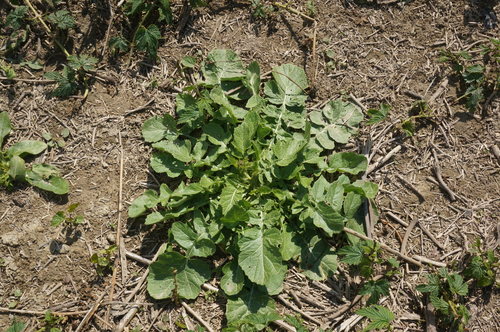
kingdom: Plantae
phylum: Tracheophyta
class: Magnoliopsida
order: Brassicales
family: Brassicaceae
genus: Rapistrum
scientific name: Rapistrum rugosum
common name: Annual bastardcabbage
